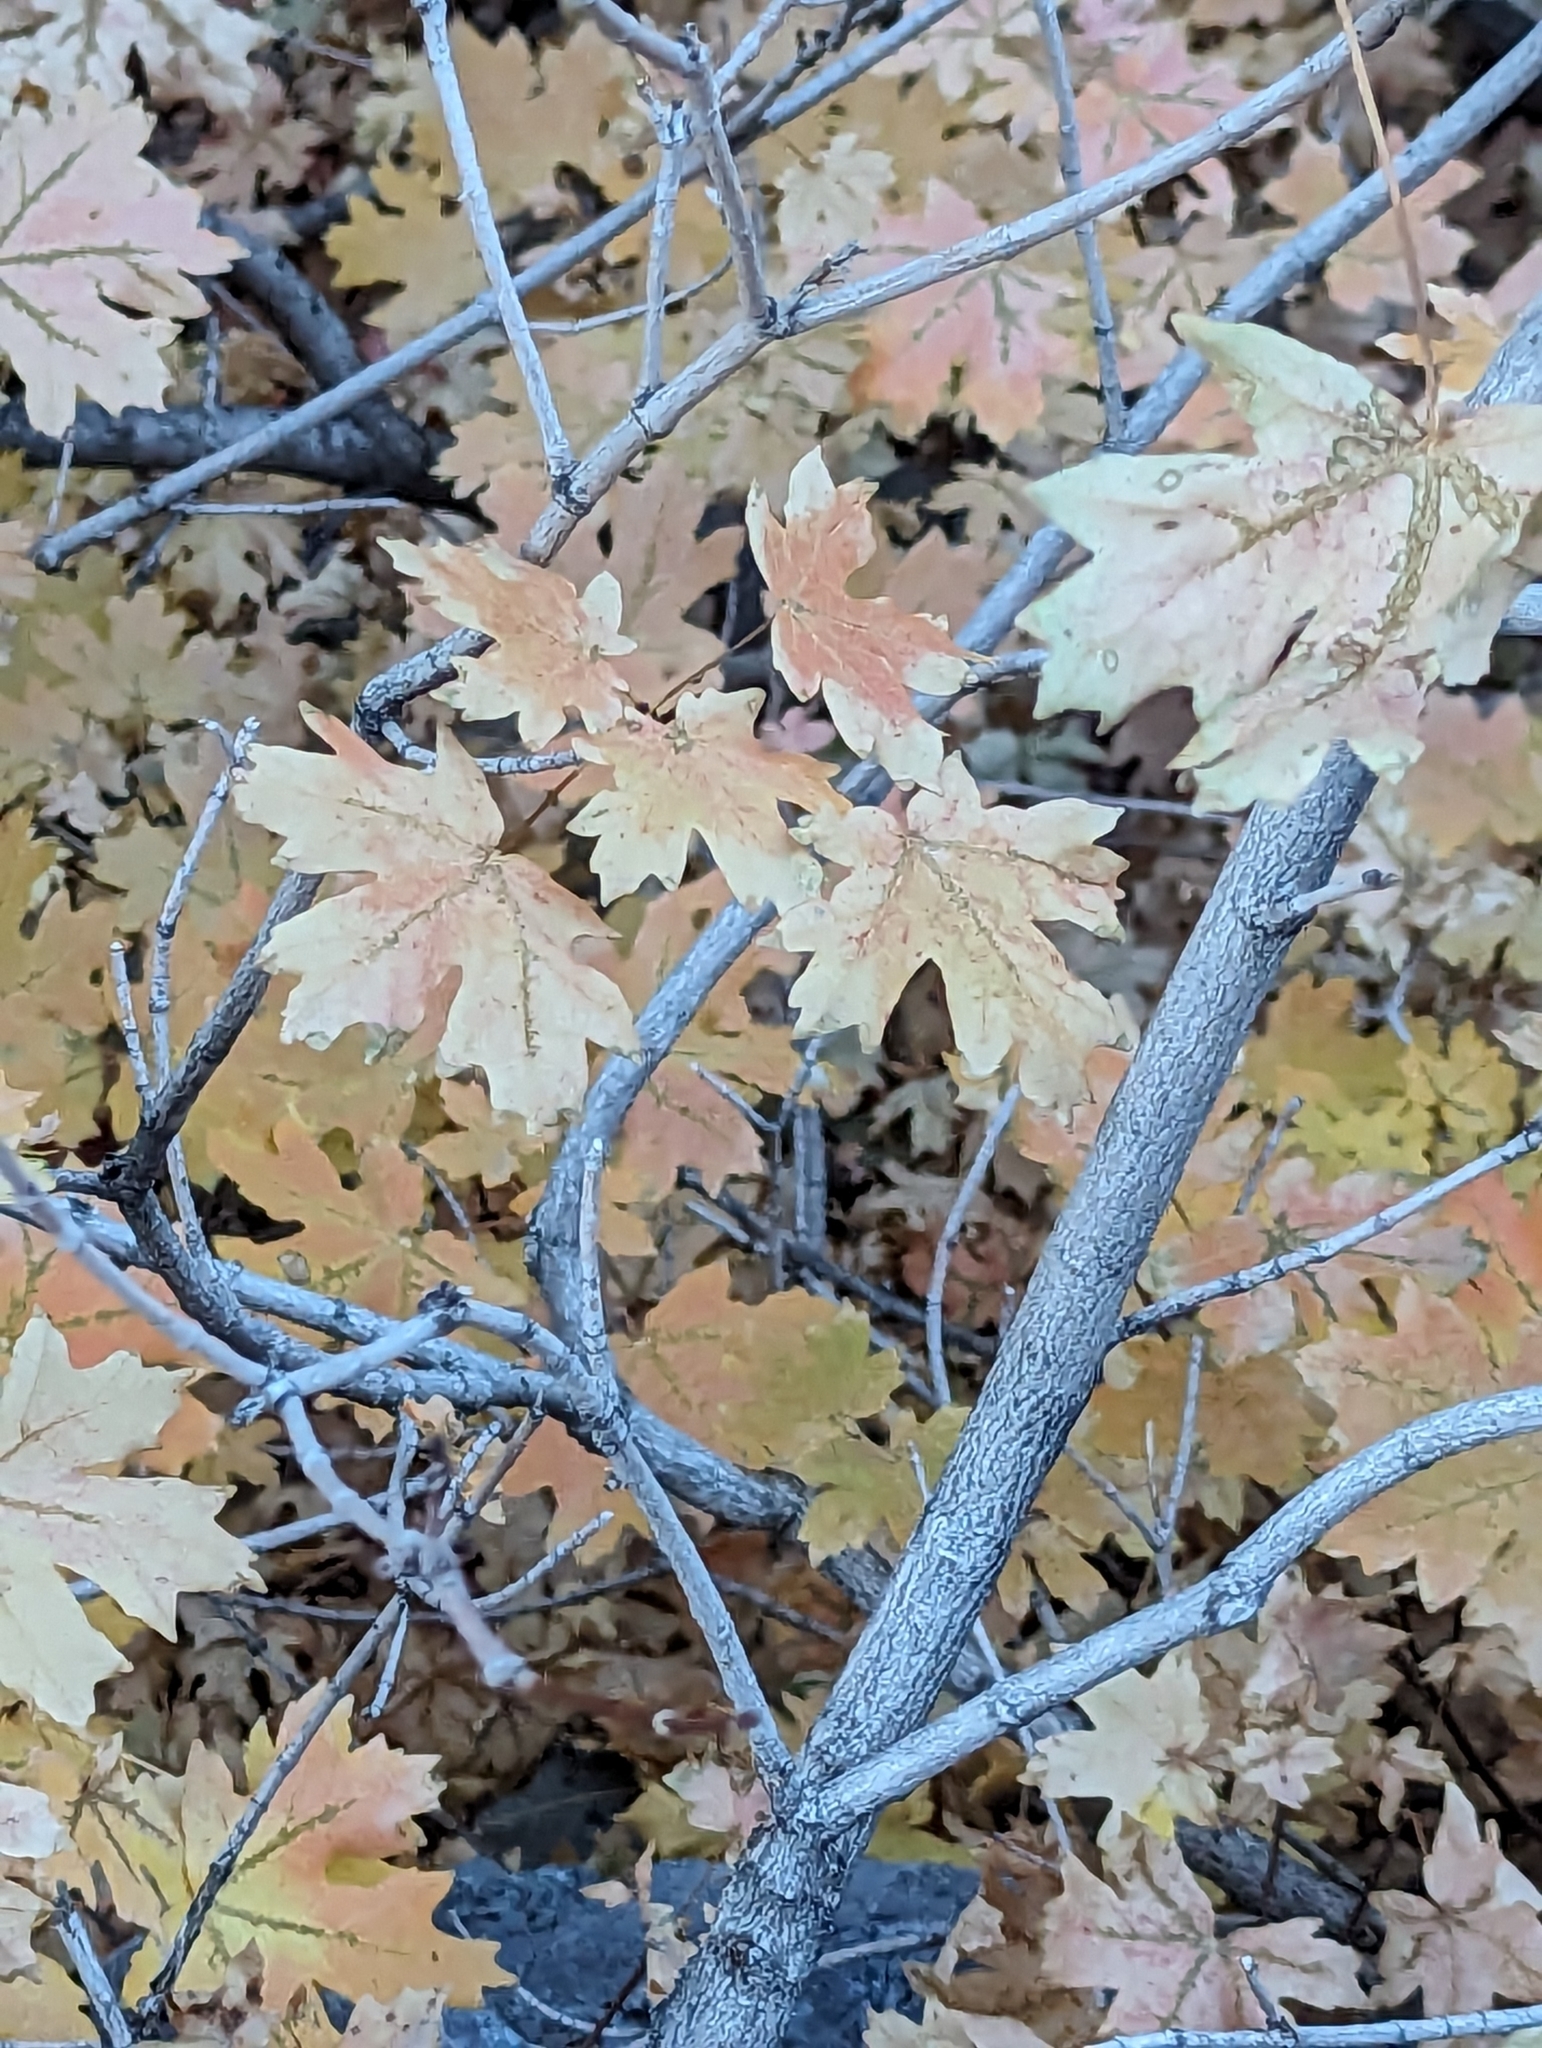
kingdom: Plantae
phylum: Tracheophyta
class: Magnoliopsida
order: Sapindales
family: Sapindaceae
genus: Acer
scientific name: Acer grandidentatum
